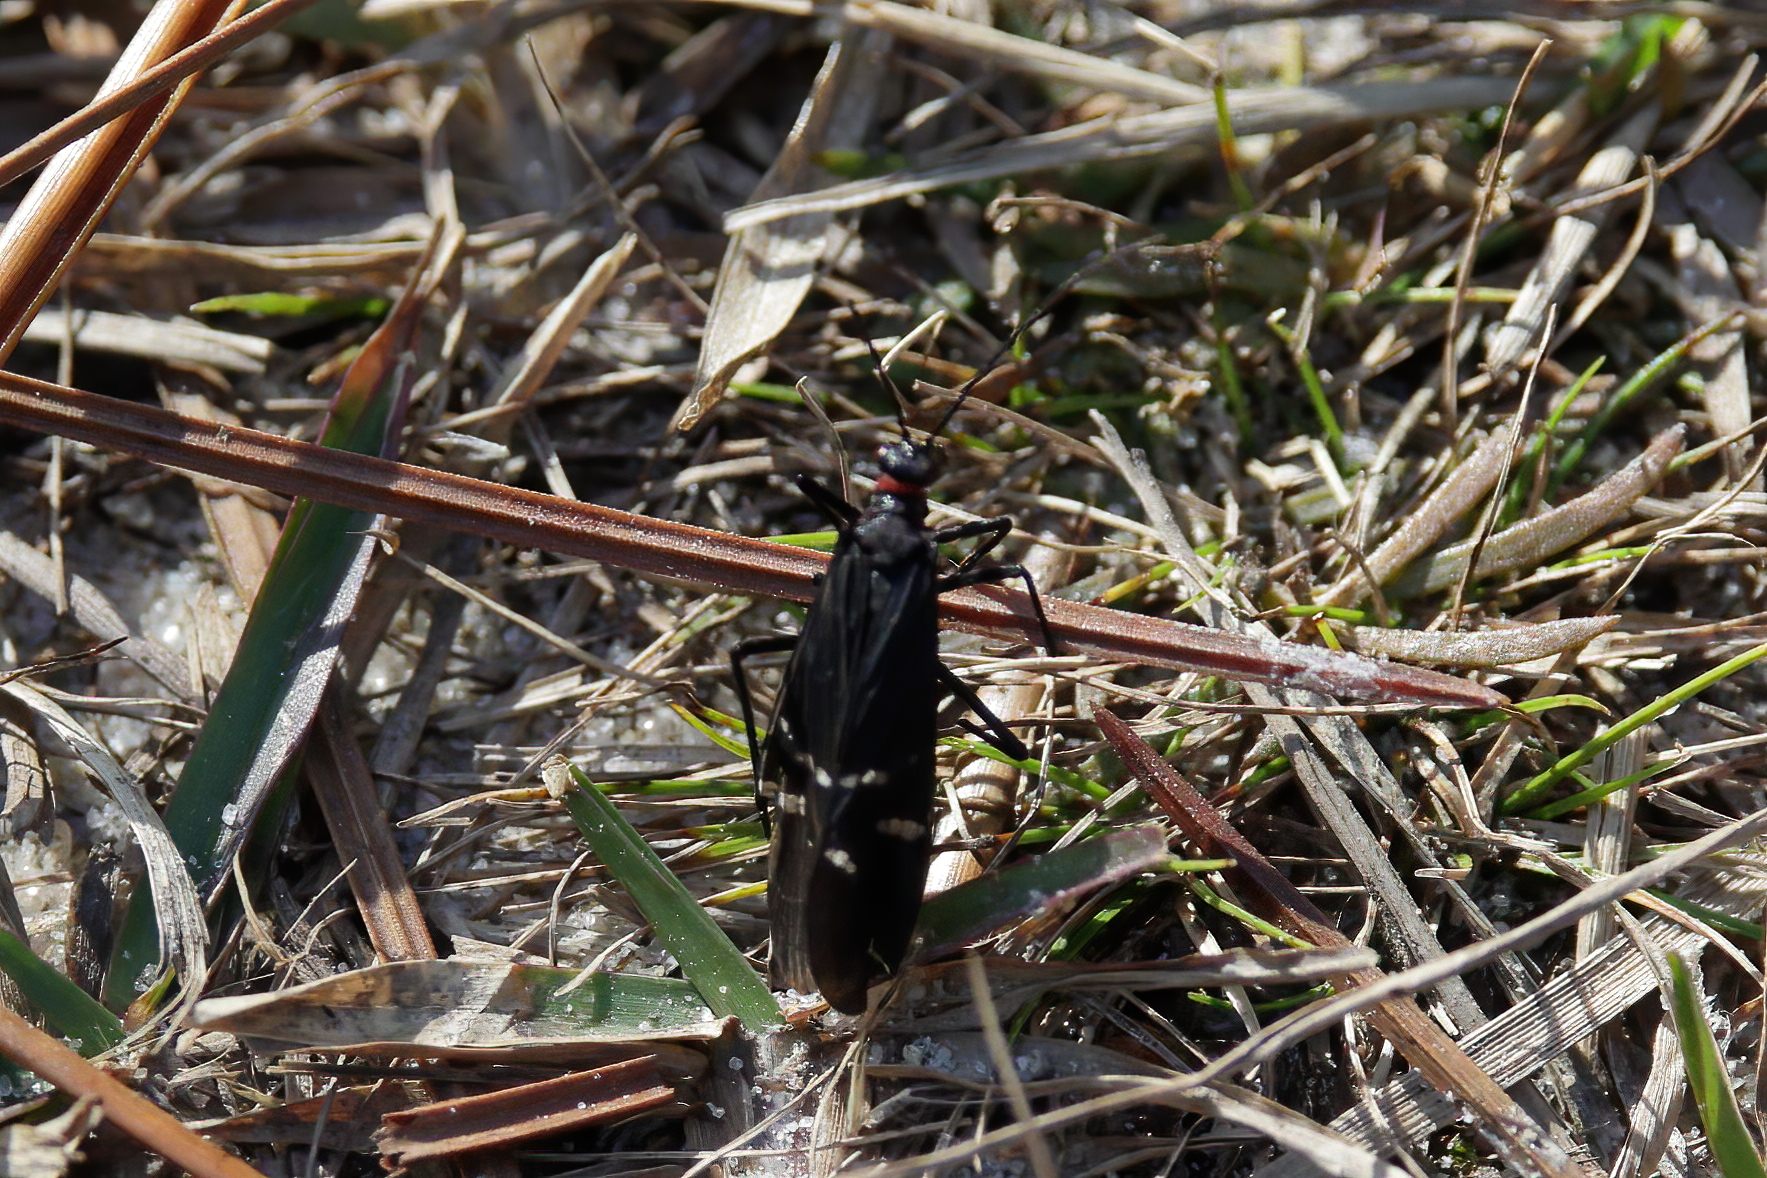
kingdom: Animalia
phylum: Arthropoda
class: Insecta
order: Mecoptera
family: Panorpidae
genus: Panorpa
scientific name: Panorpa lugubris
